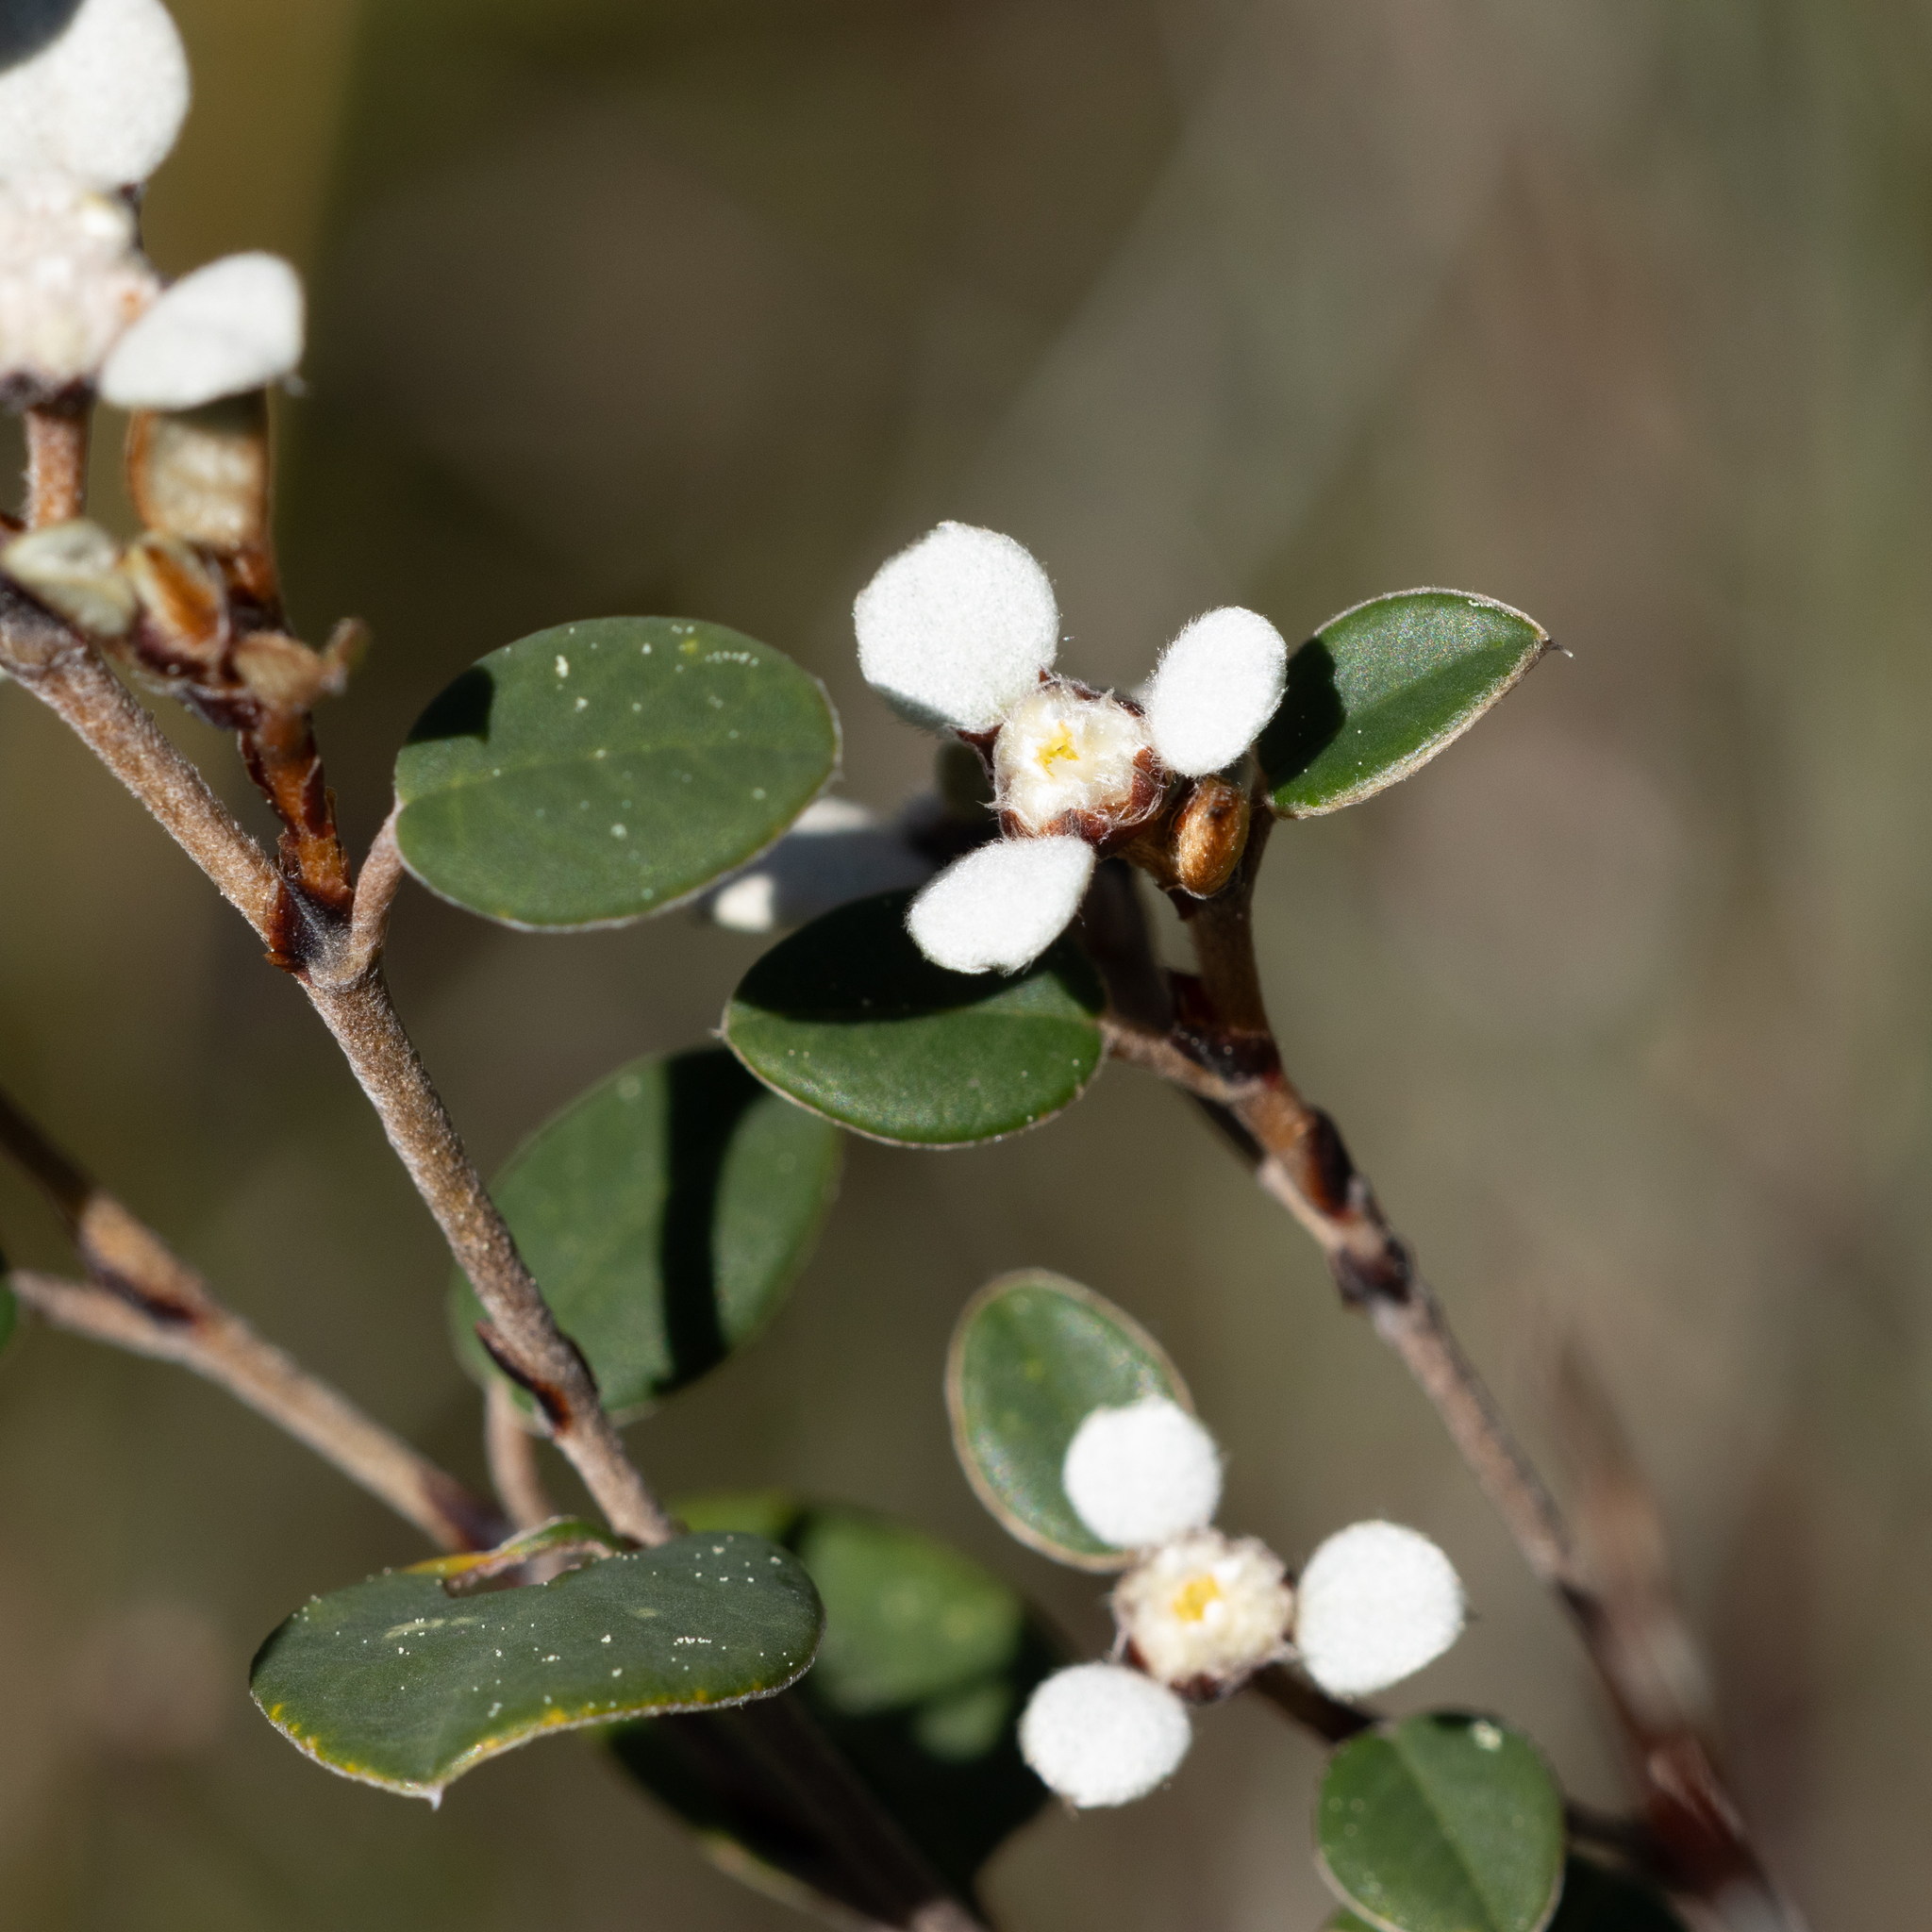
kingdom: Plantae
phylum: Tracheophyta
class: Magnoliopsida
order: Rosales
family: Rhamnaceae
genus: Spyridium
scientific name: Spyridium thymifolium
